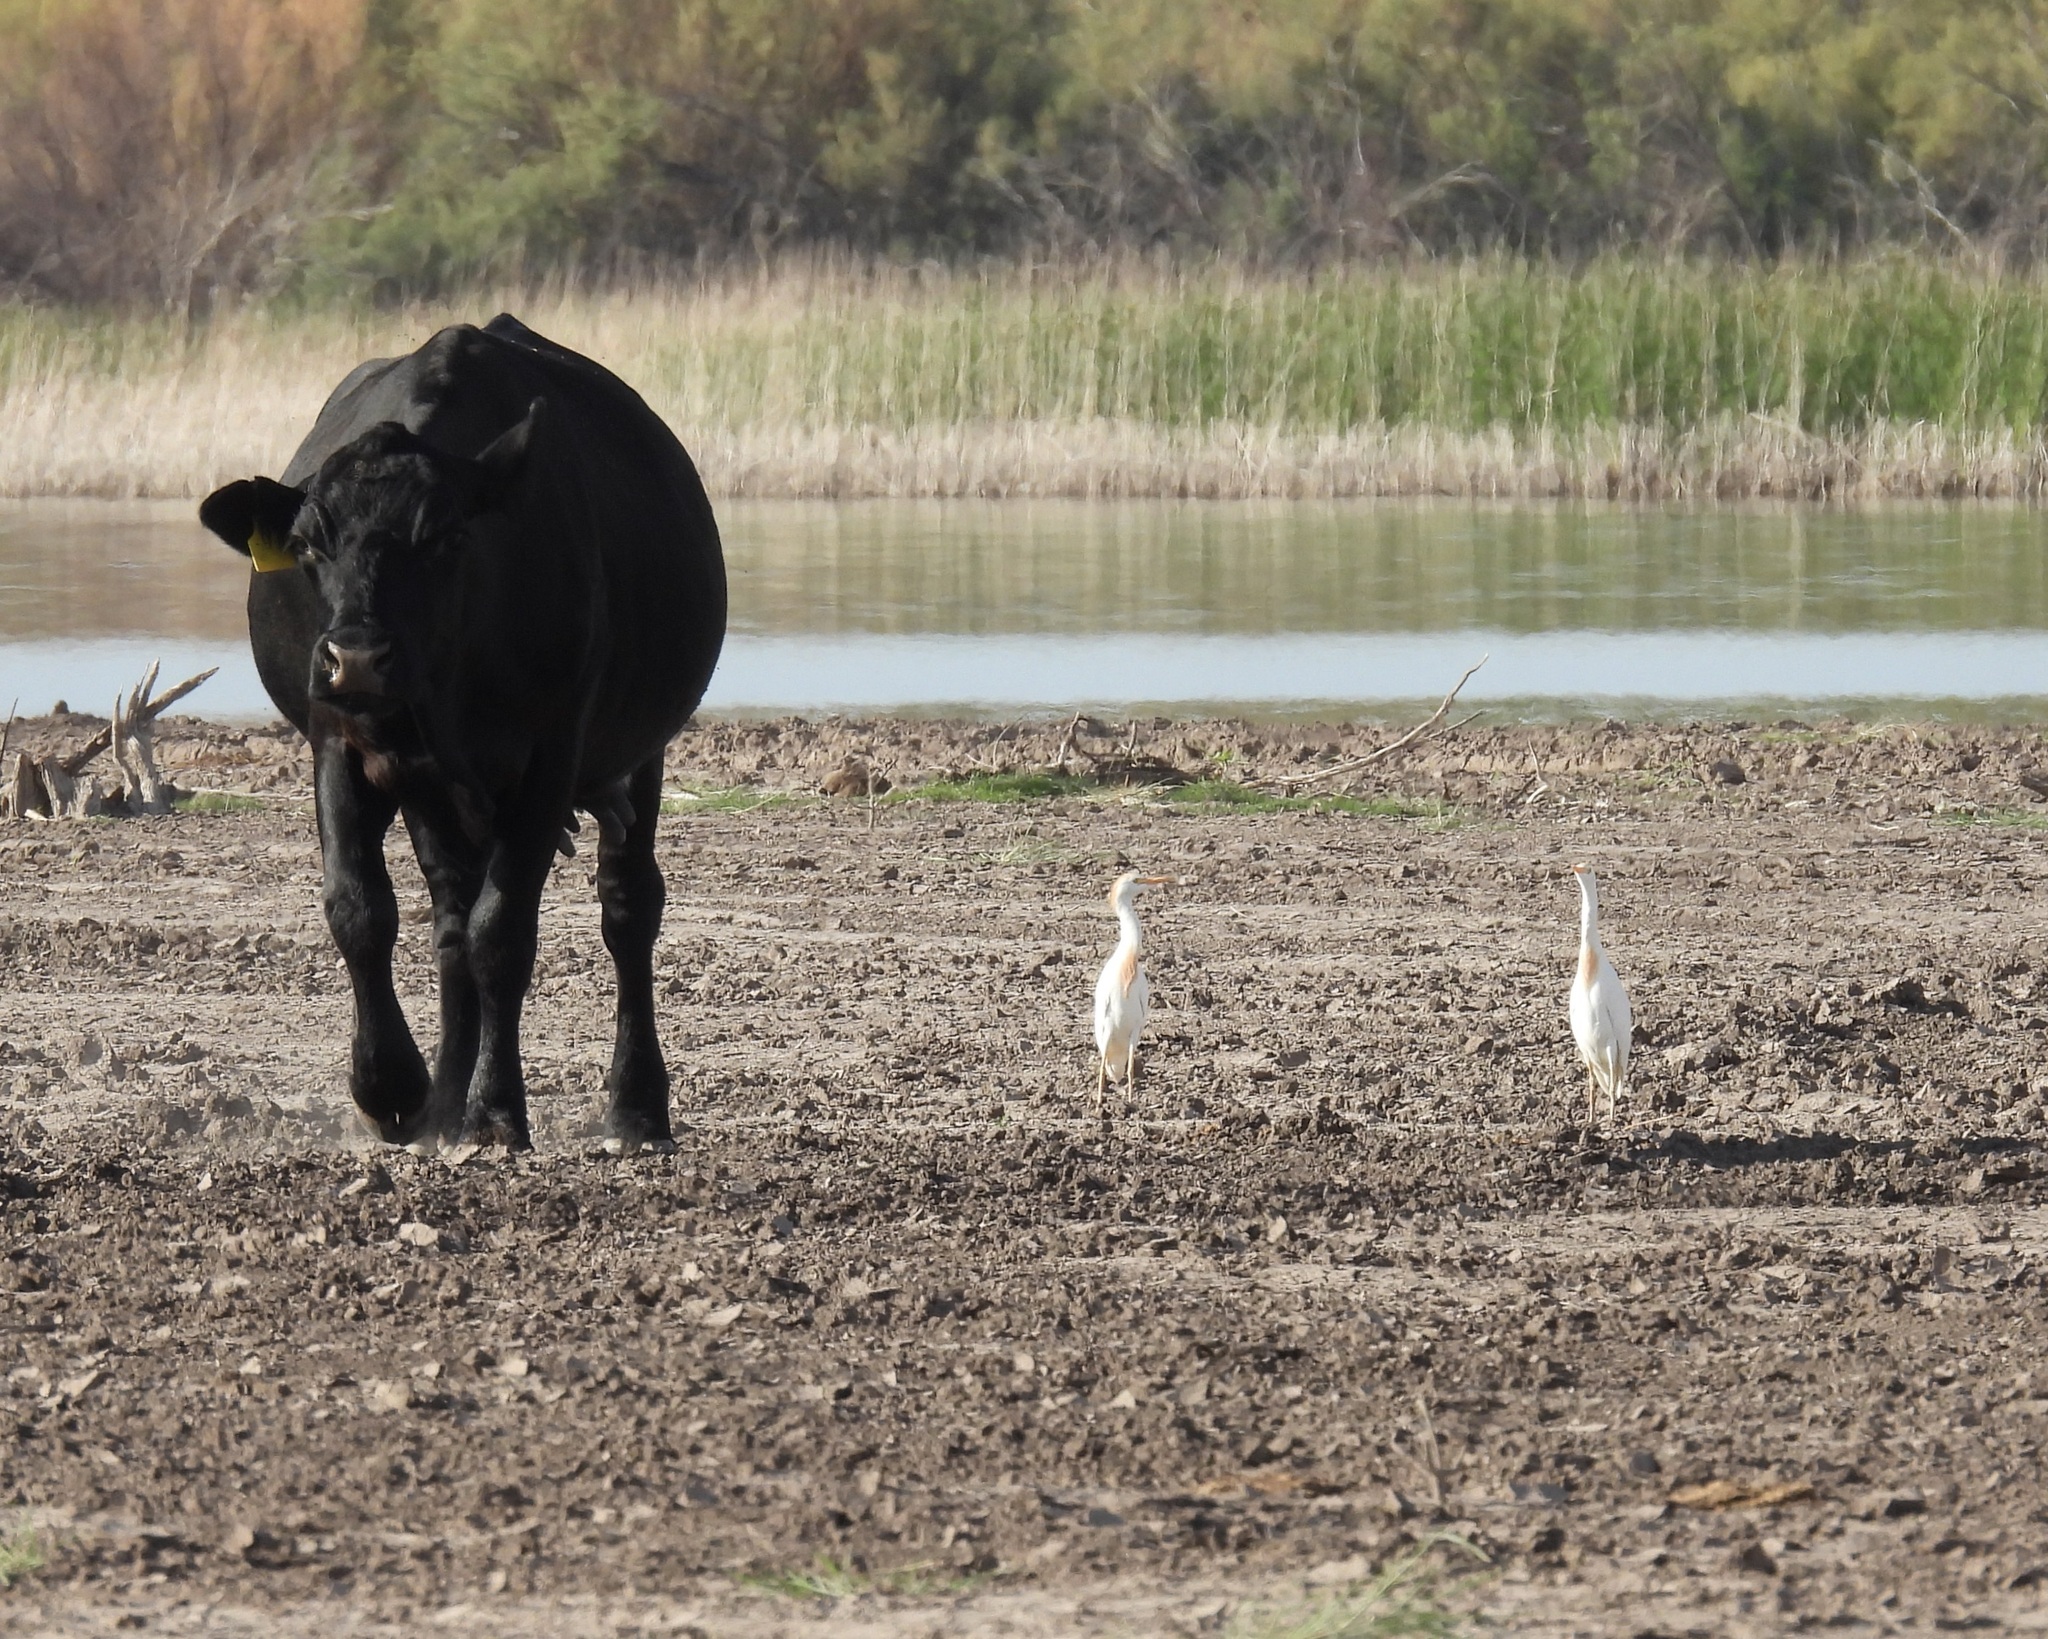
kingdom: Animalia
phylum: Chordata
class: Aves
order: Pelecaniformes
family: Ardeidae
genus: Bubulcus
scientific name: Bubulcus ibis
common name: Cattle egret
